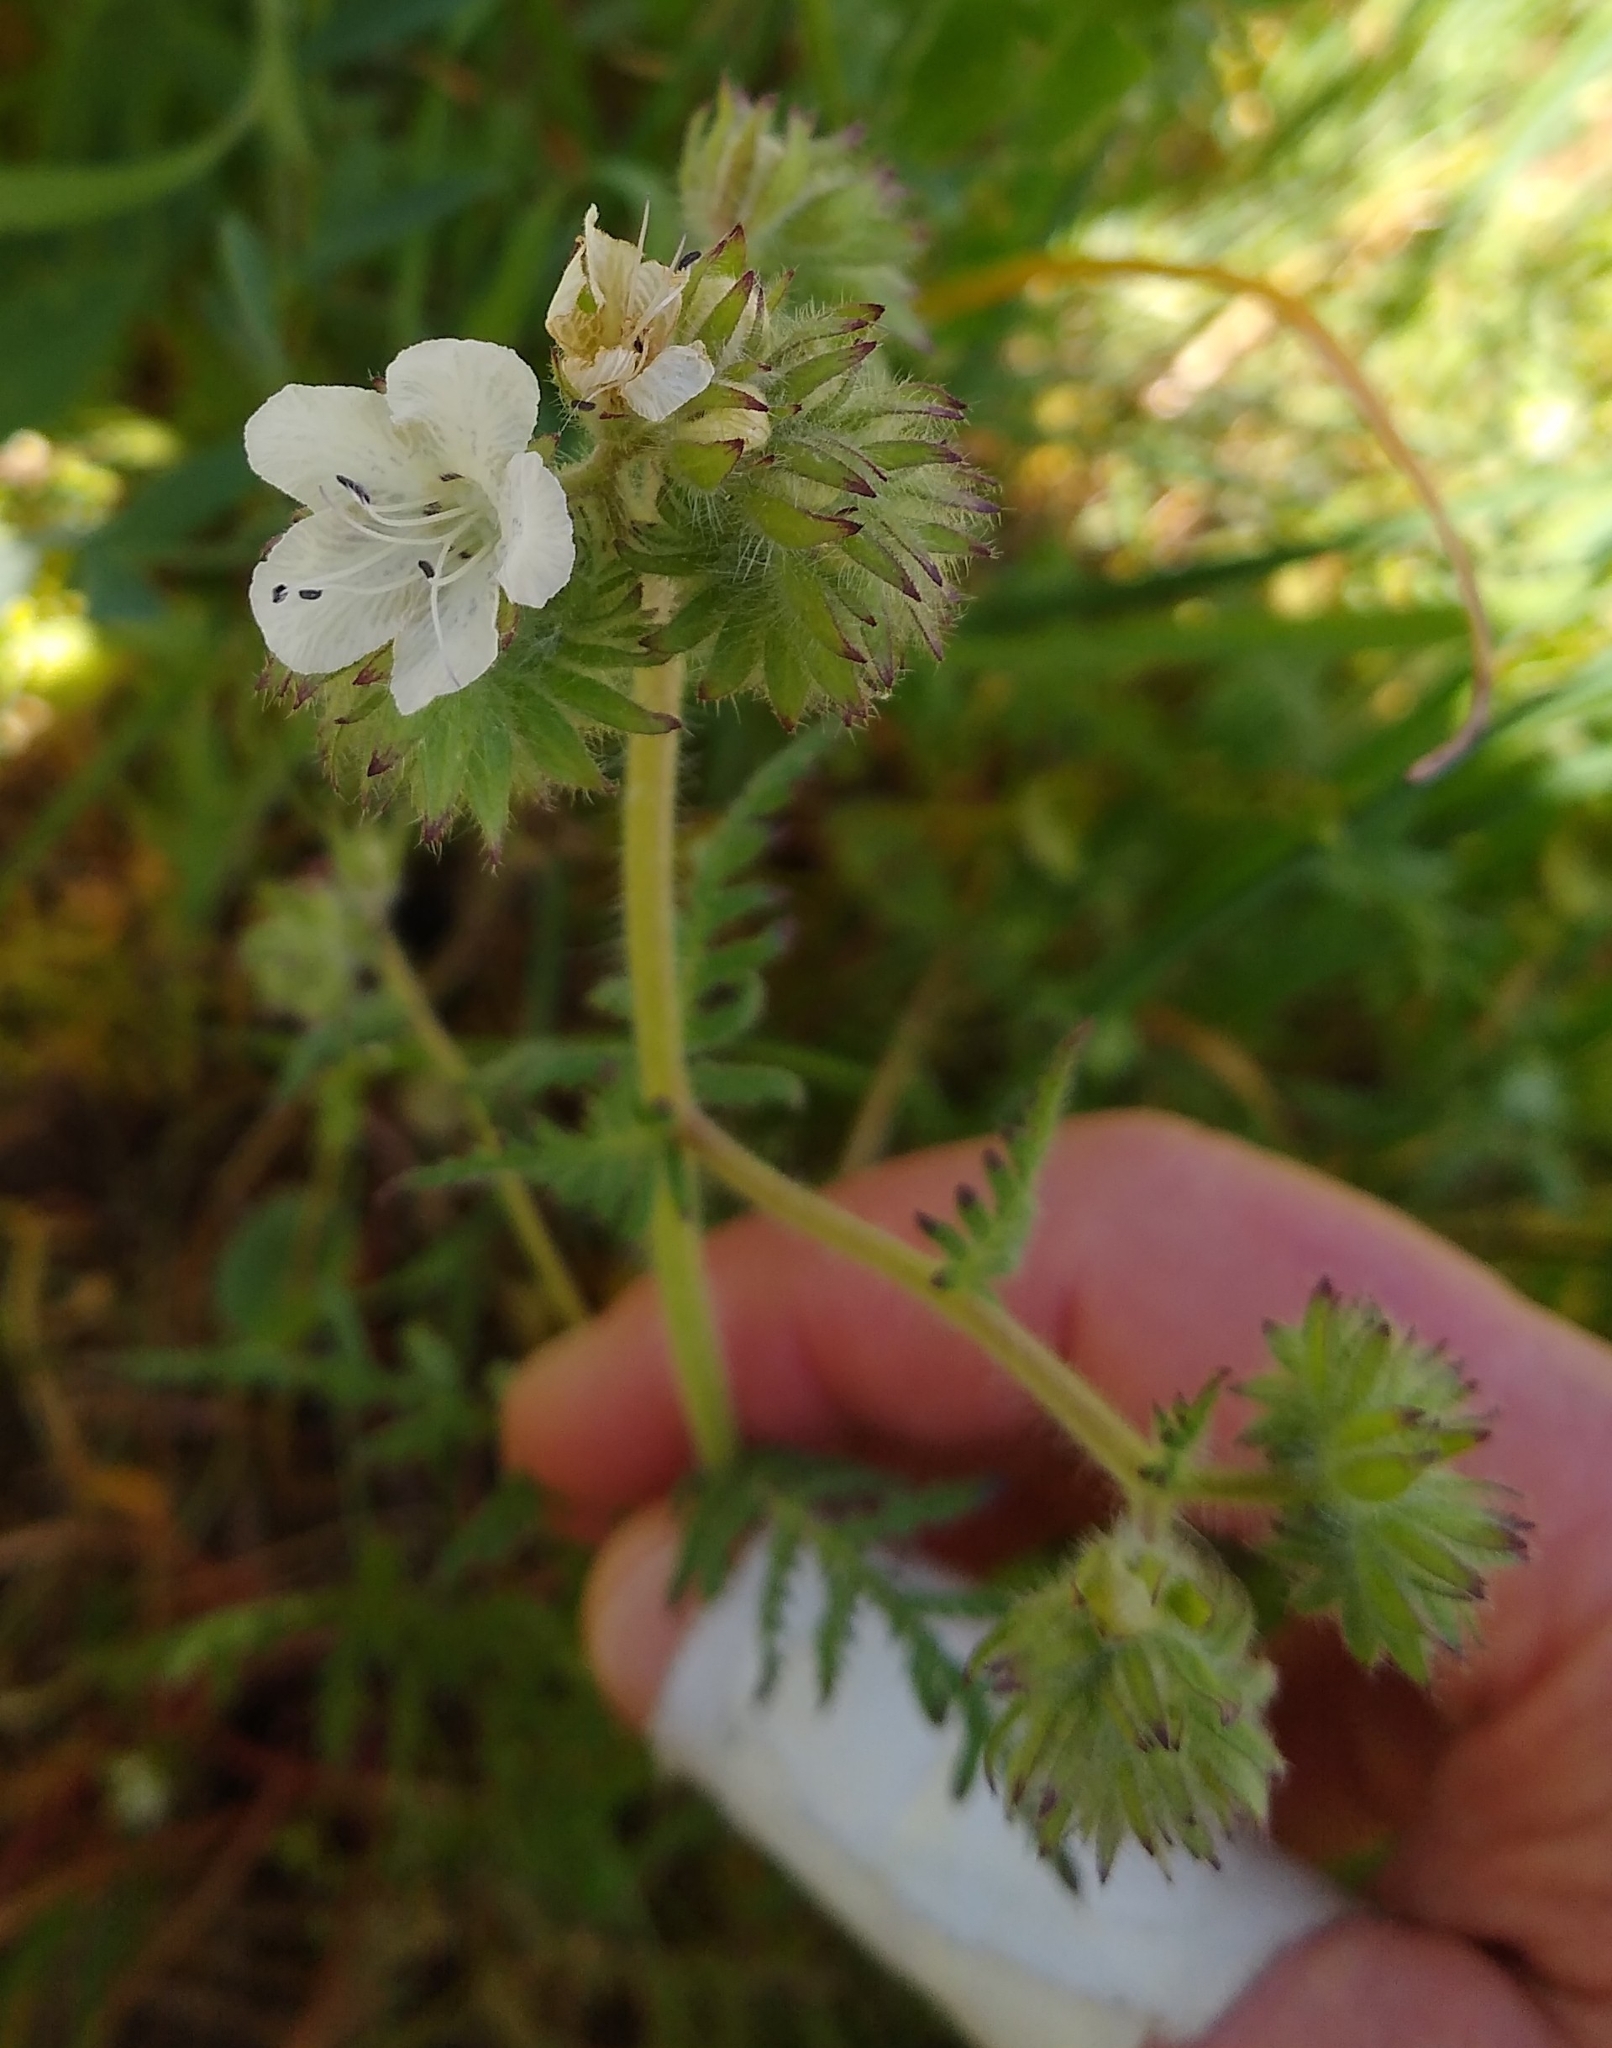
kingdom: Plantae
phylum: Tracheophyta
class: Magnoliopsida
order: Boraginales
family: Hydrophyllaceae
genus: Phacelia
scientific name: Phacelia distans
